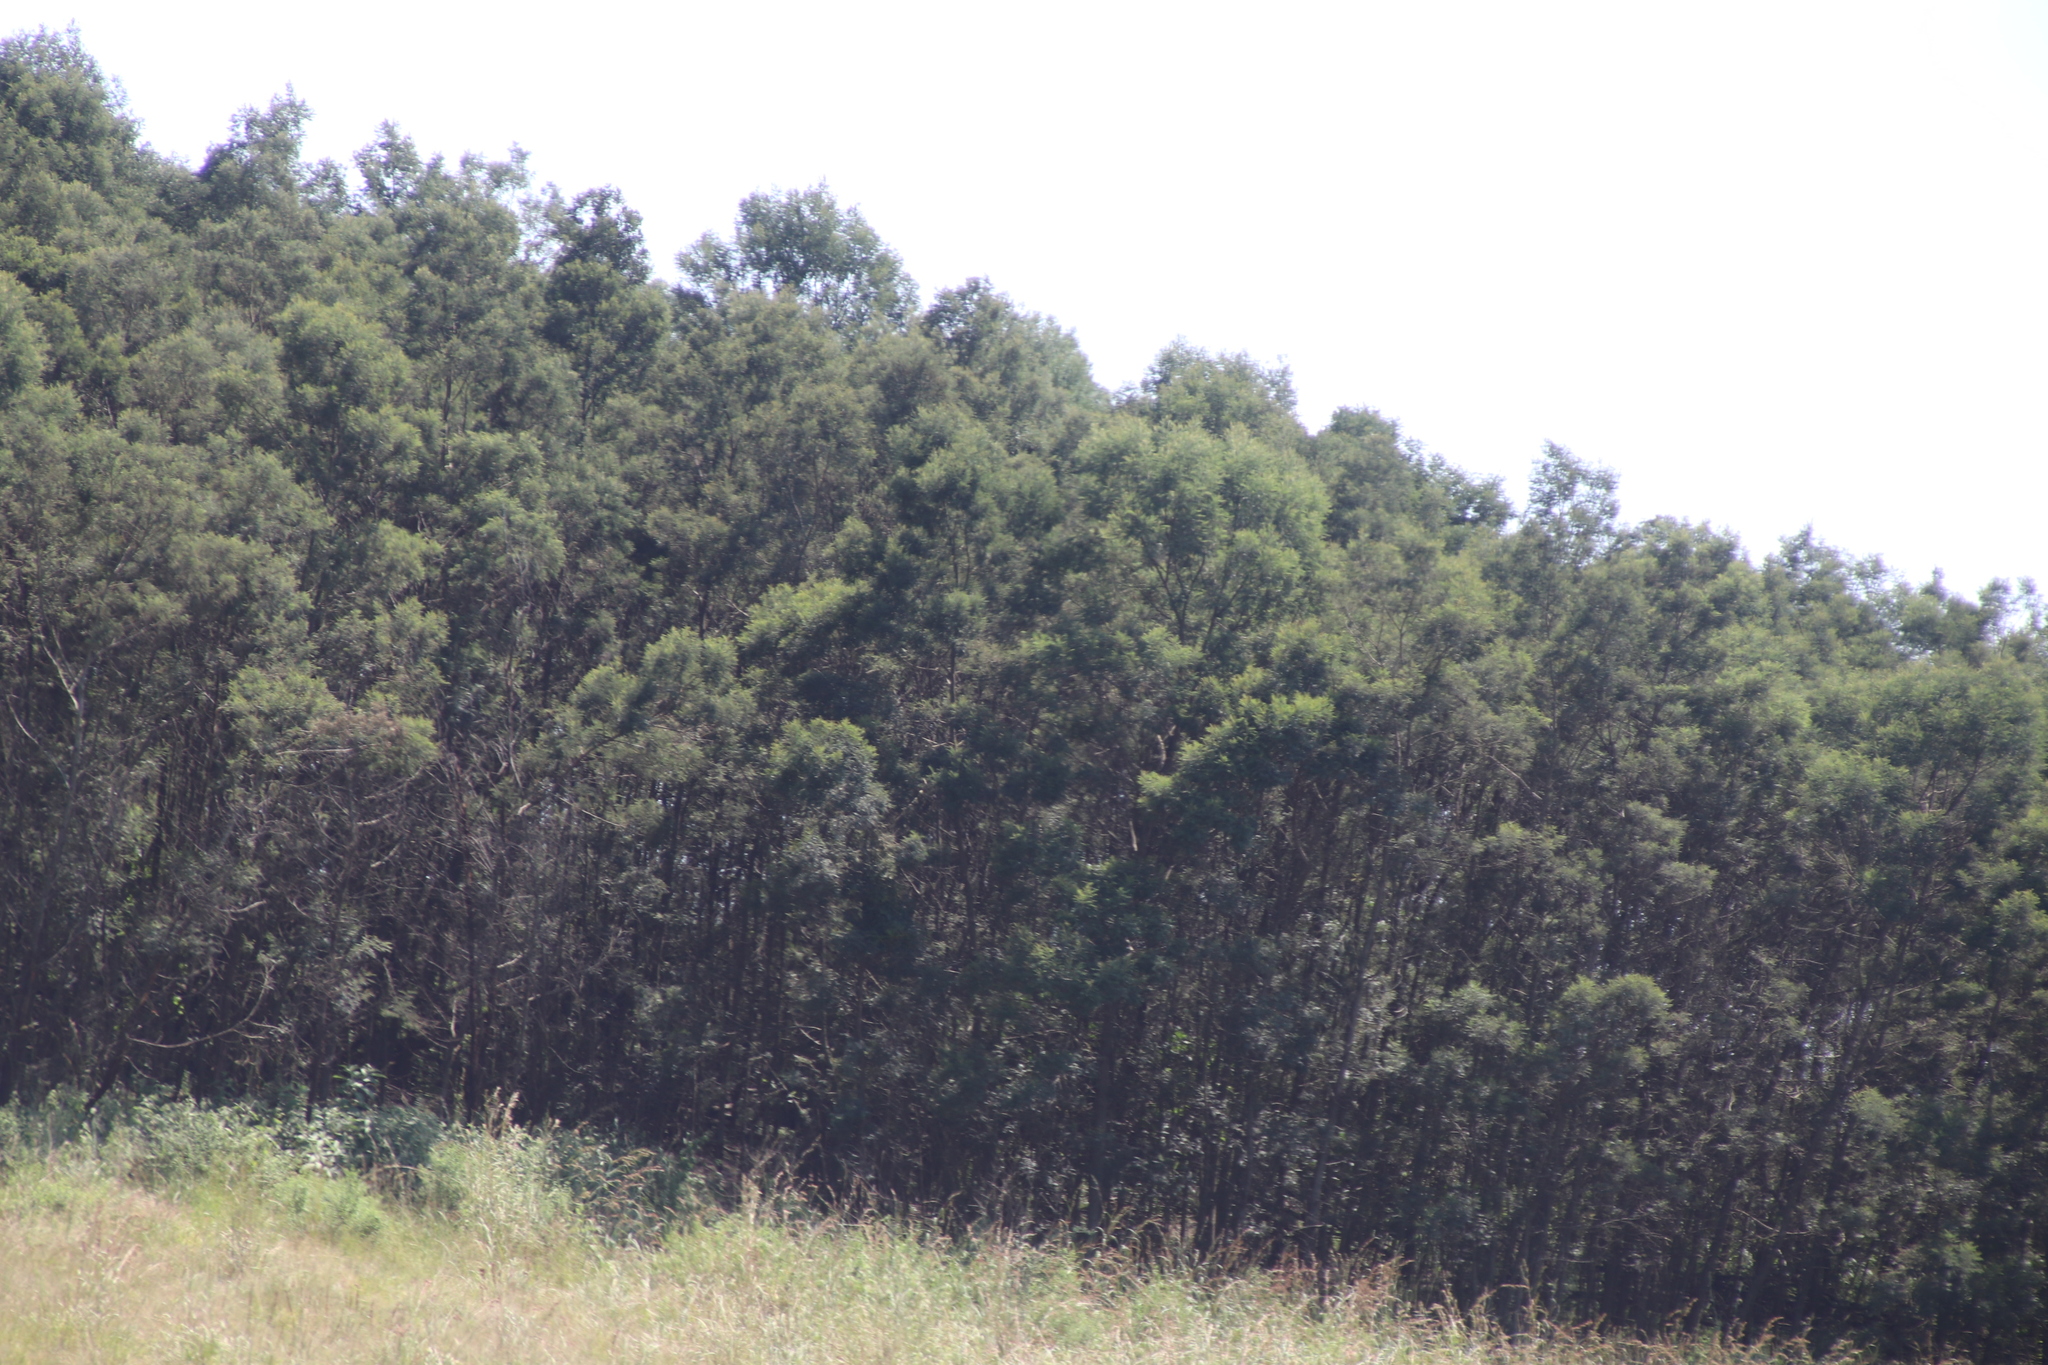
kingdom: Plantae
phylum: Tracheophyta
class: Magnoliopsida
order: Fabales
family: Fabaceae
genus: Acacia
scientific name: Acacia dealbata
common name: Silver wattle
